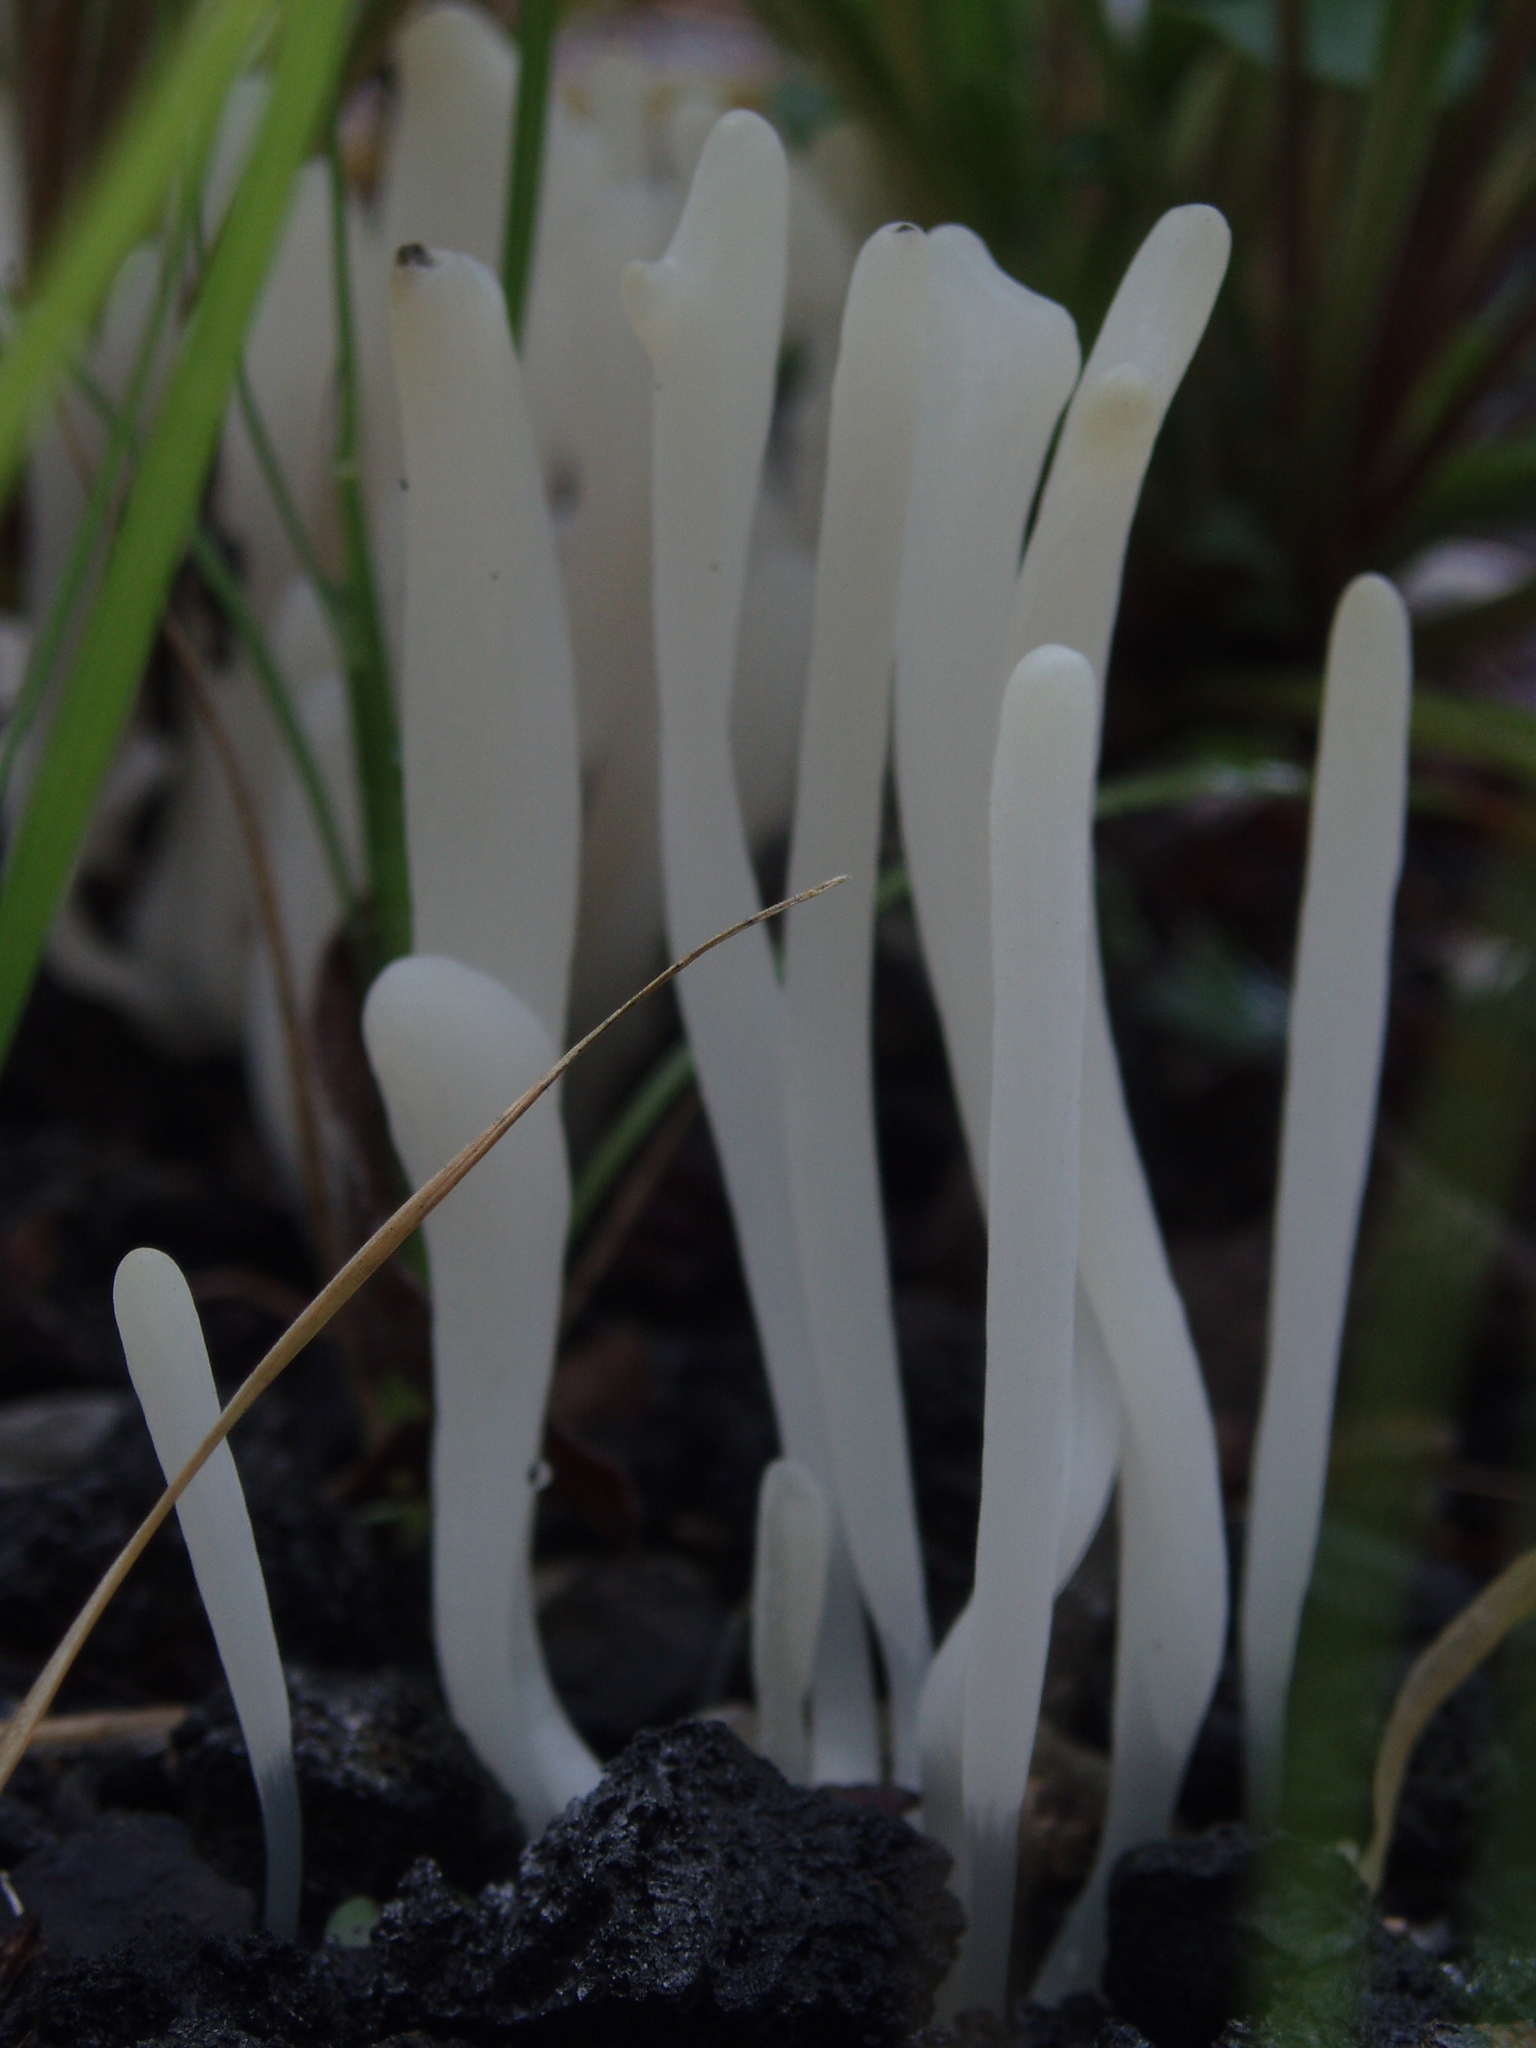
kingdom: Fungi
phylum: Basidiomycota
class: Agaricomycetes
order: Agaricales
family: Clavariaceae
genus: Clavaria
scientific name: Clavaria fragilis
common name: White spindles
